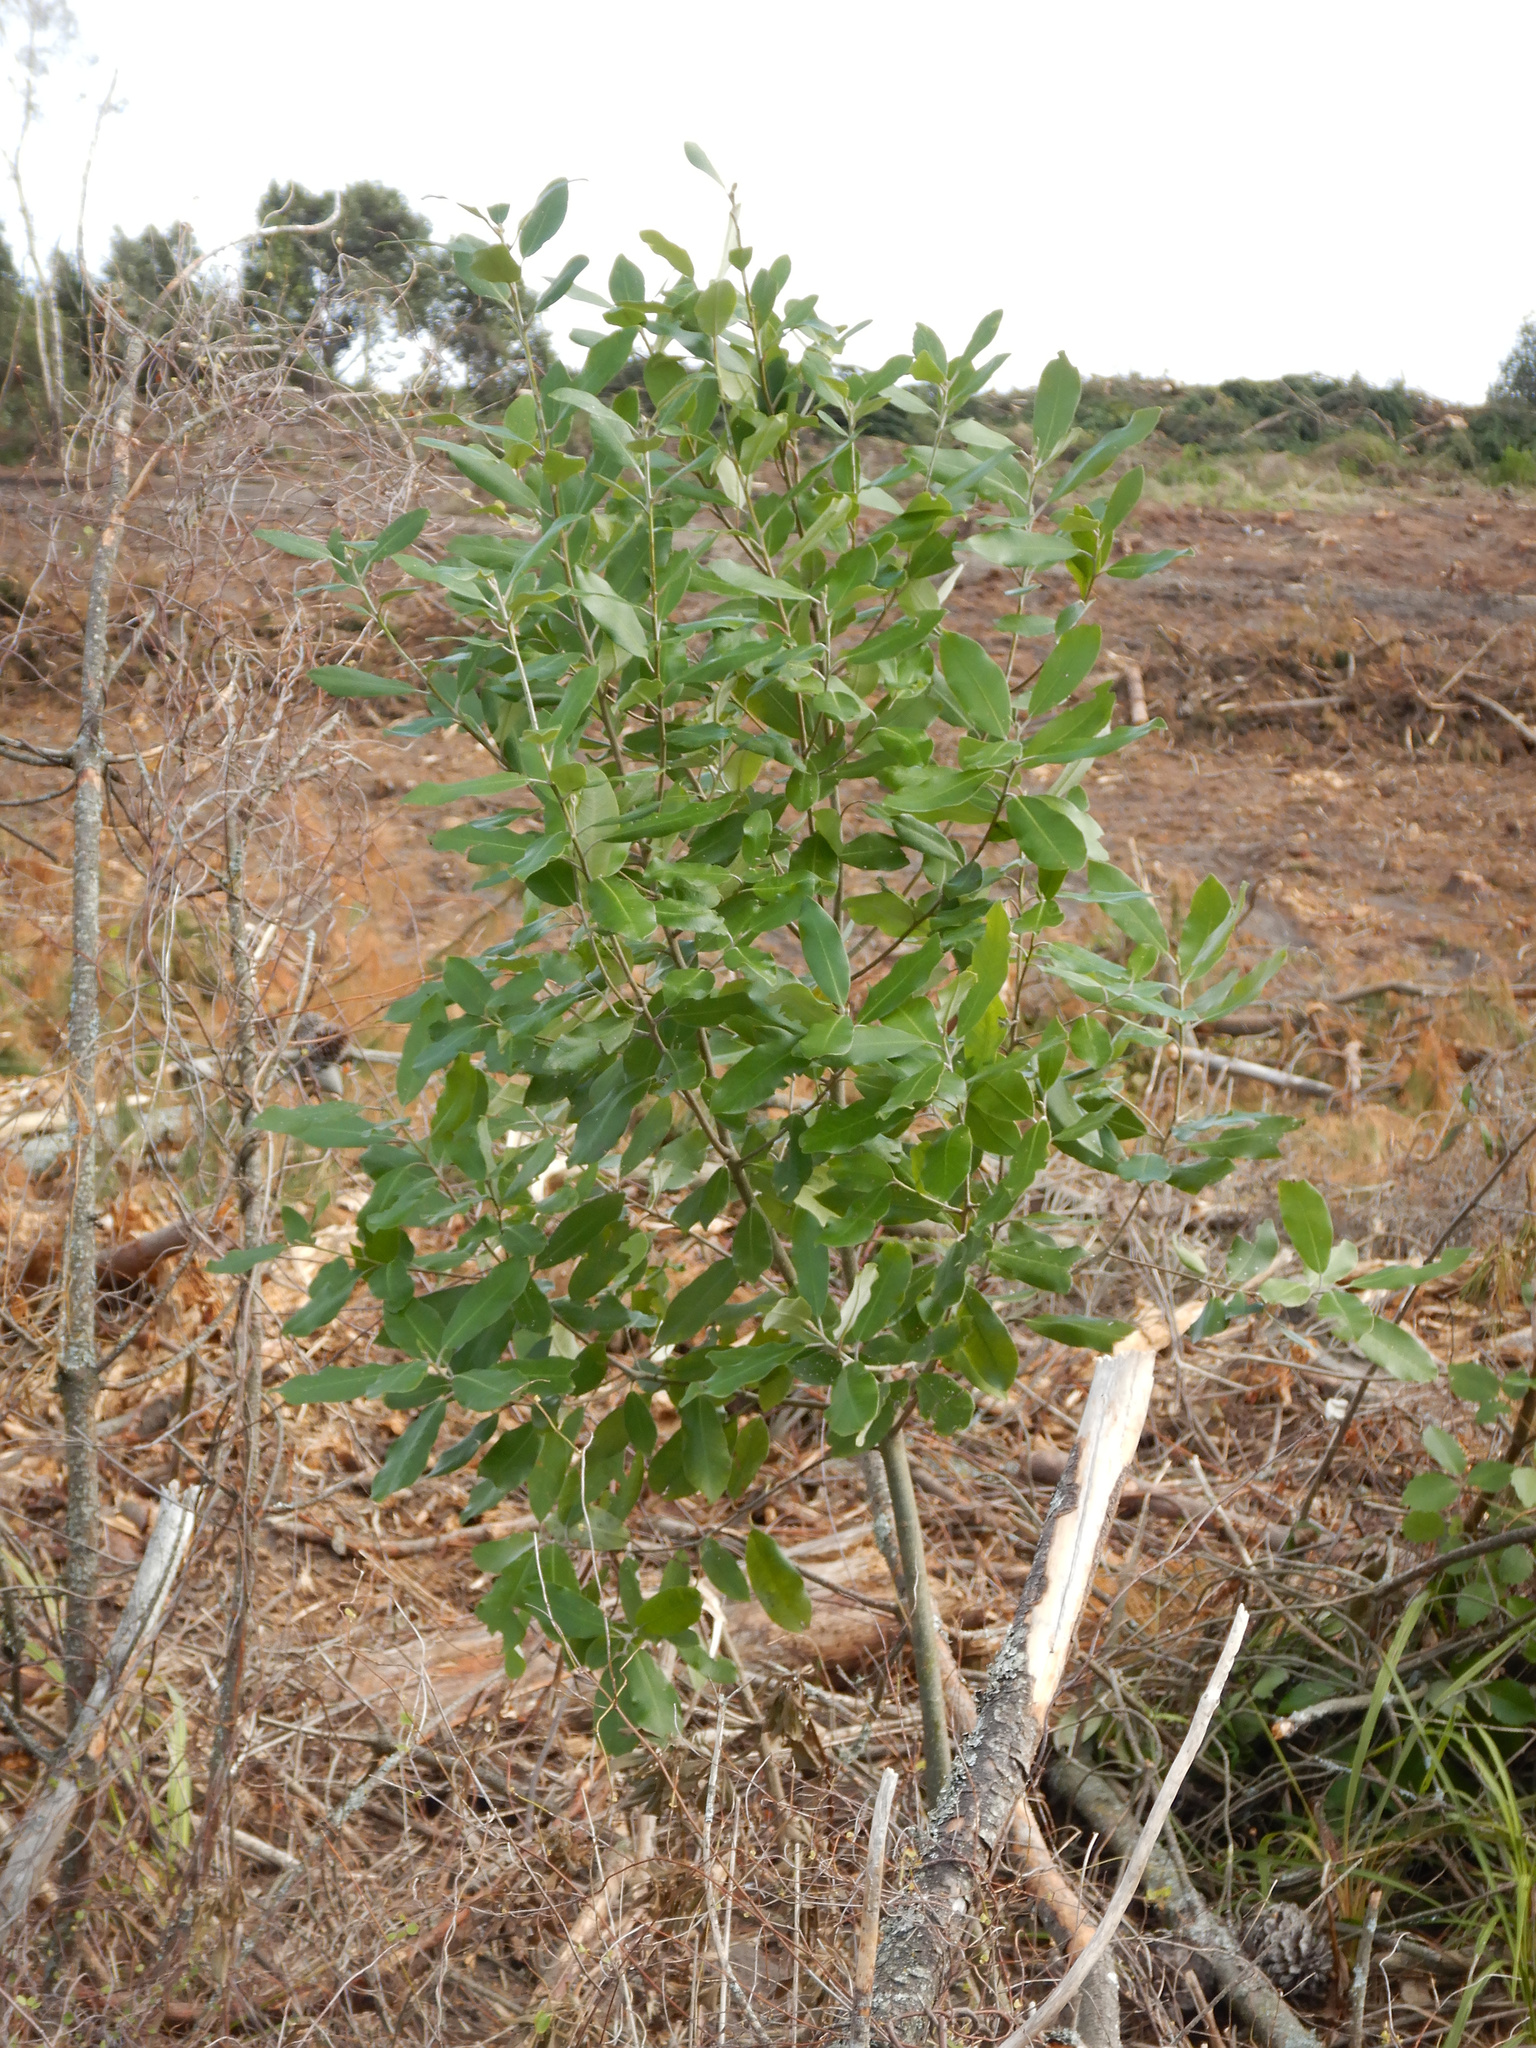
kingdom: Plantae
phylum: Tracheophyta
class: Magnoliopsida
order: Apiales
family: Pittosporaceae
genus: Pittosporum
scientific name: Pittosporum ralphii
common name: Ralph's desertwillow
